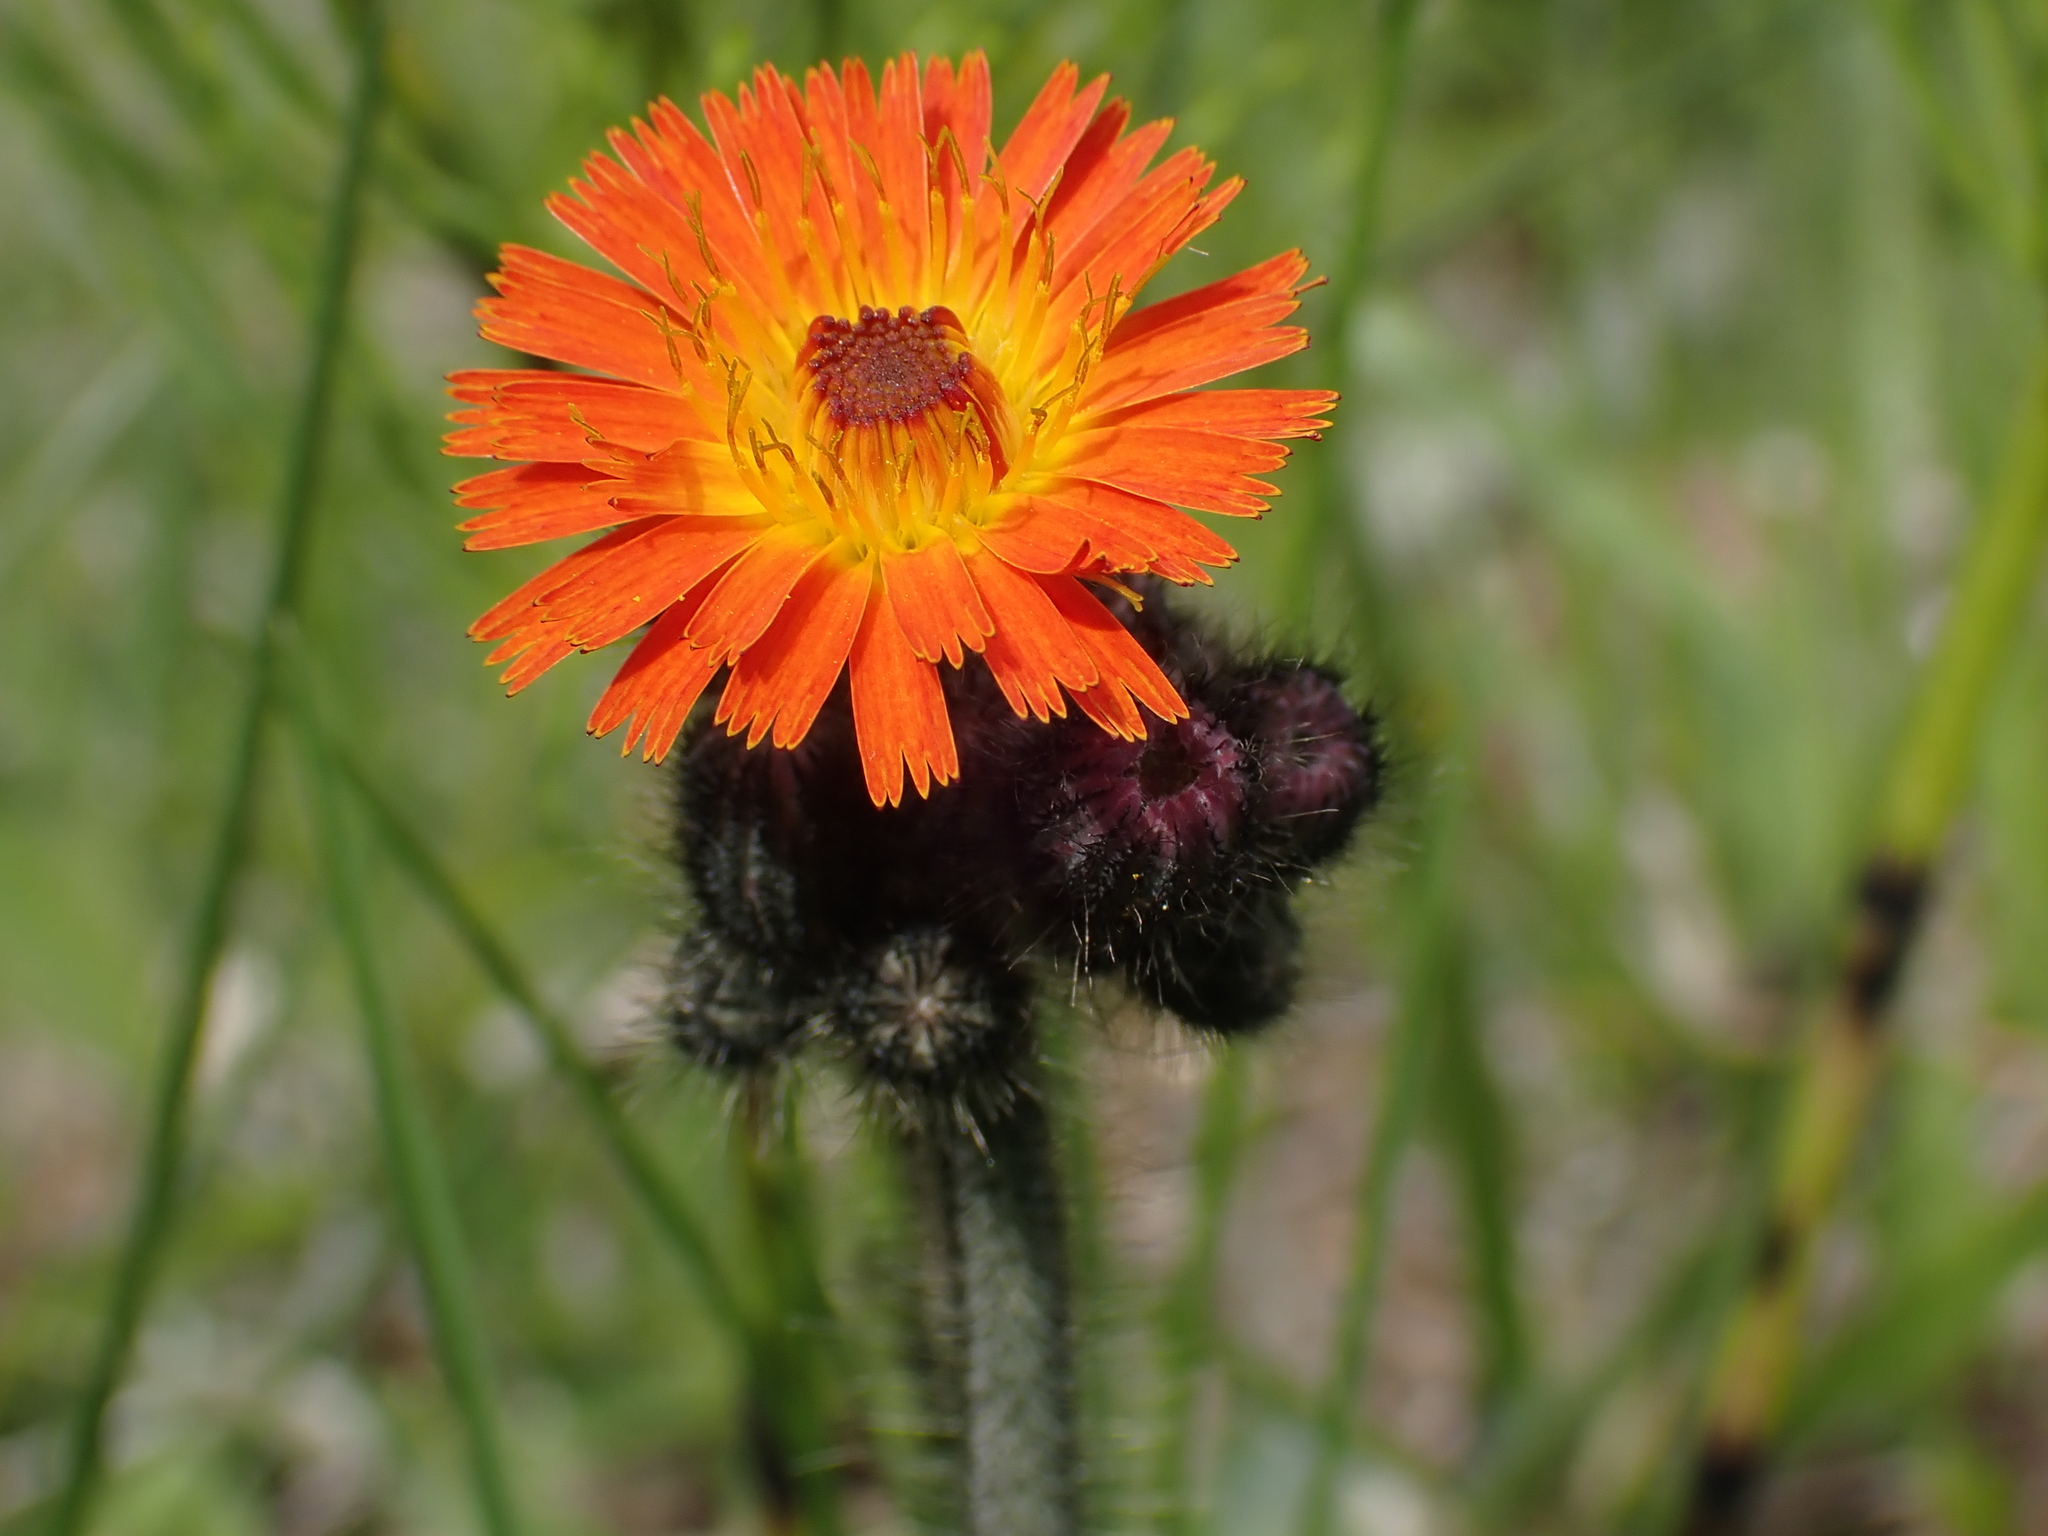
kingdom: Plantae
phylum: Tracheophyta
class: Magnoliopsida
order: Asterales
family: Asteraceae
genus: Pilosella
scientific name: Pilosella aurantiaca
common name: Fox-and-cubs
